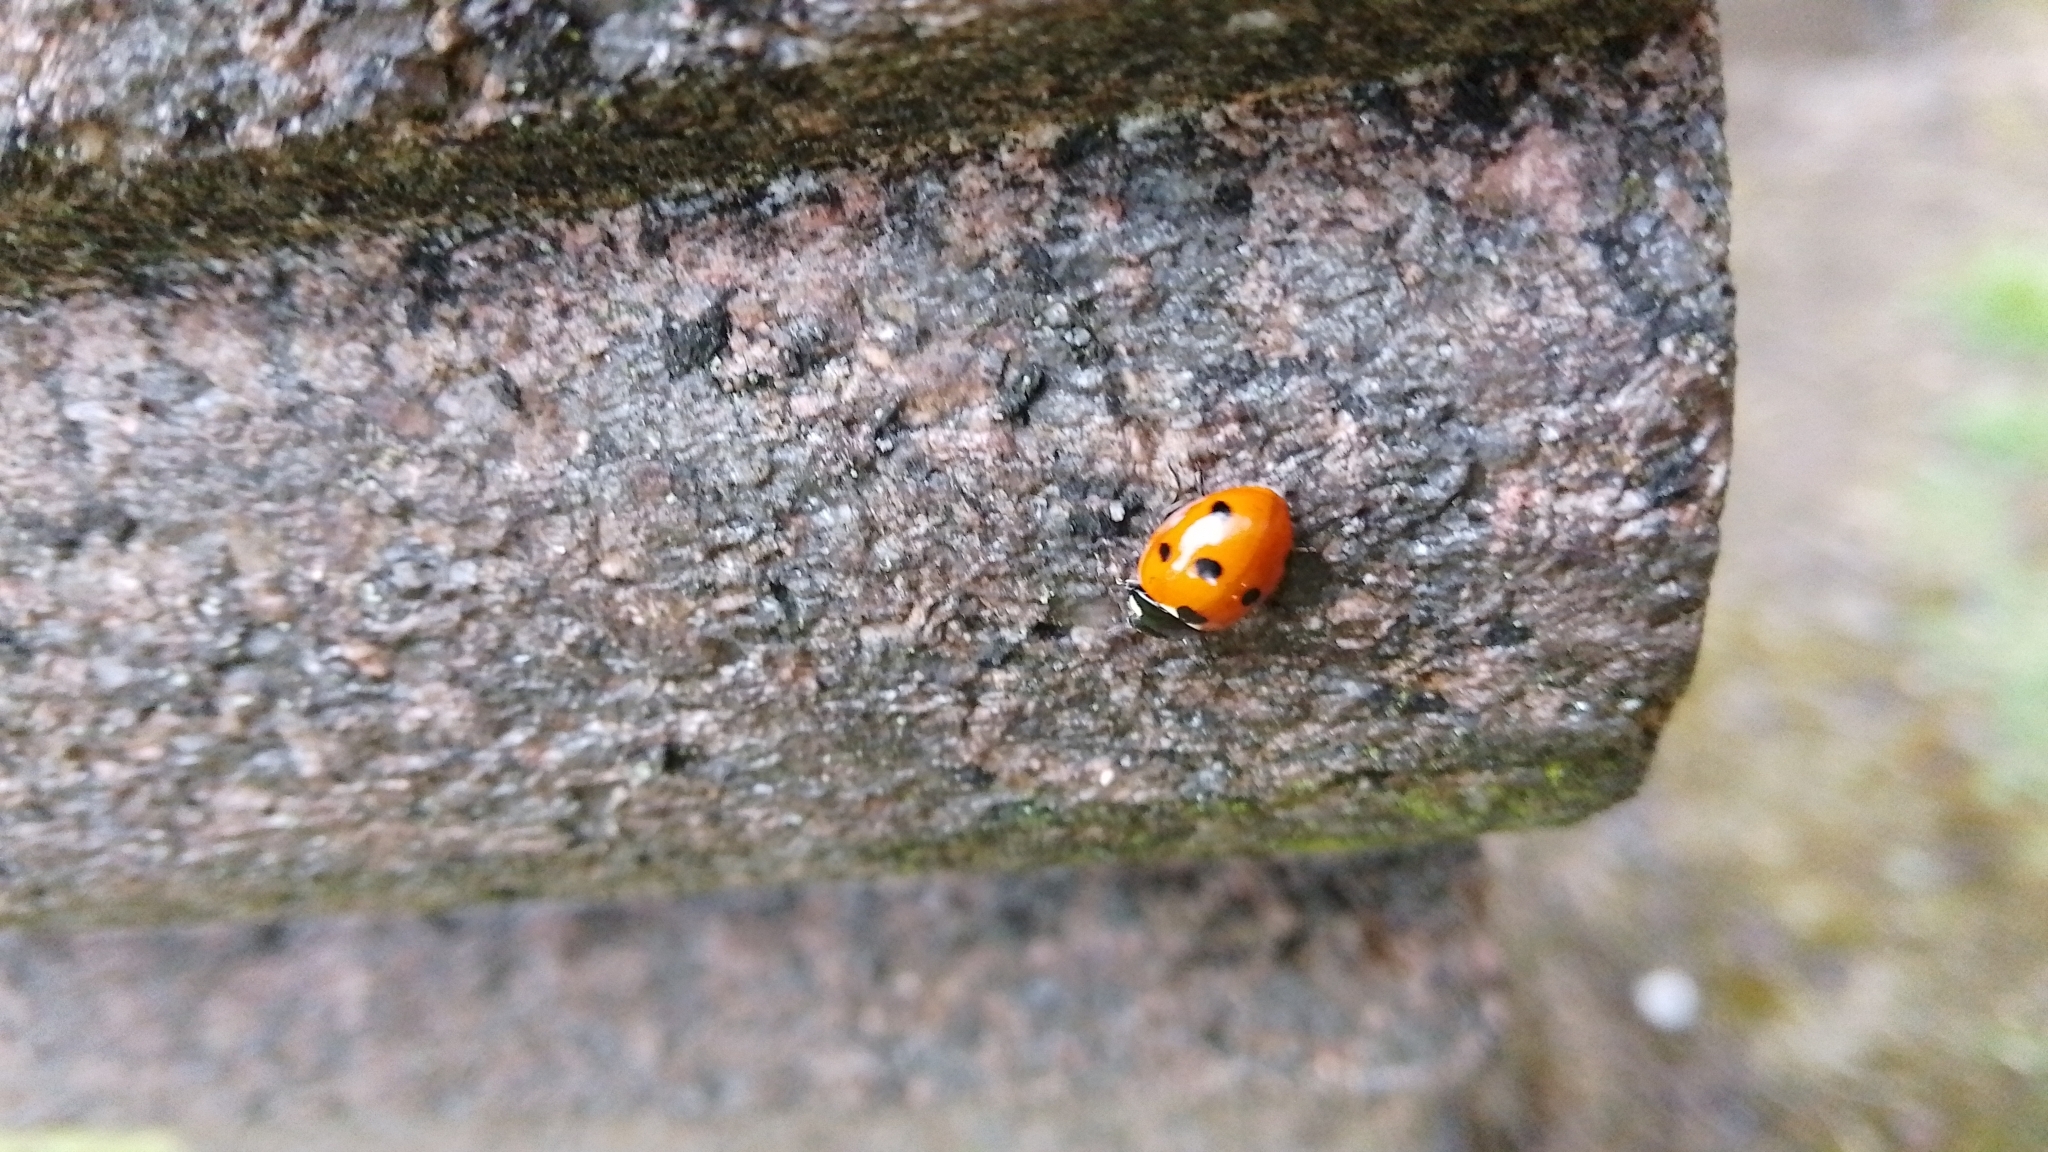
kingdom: Animalia
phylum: Arthropoda
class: Insecta
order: Coleoptera
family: Coccinellidae
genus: Coccinella
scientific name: Coccinella septempunctata
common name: Sevenspotted lady beetle
